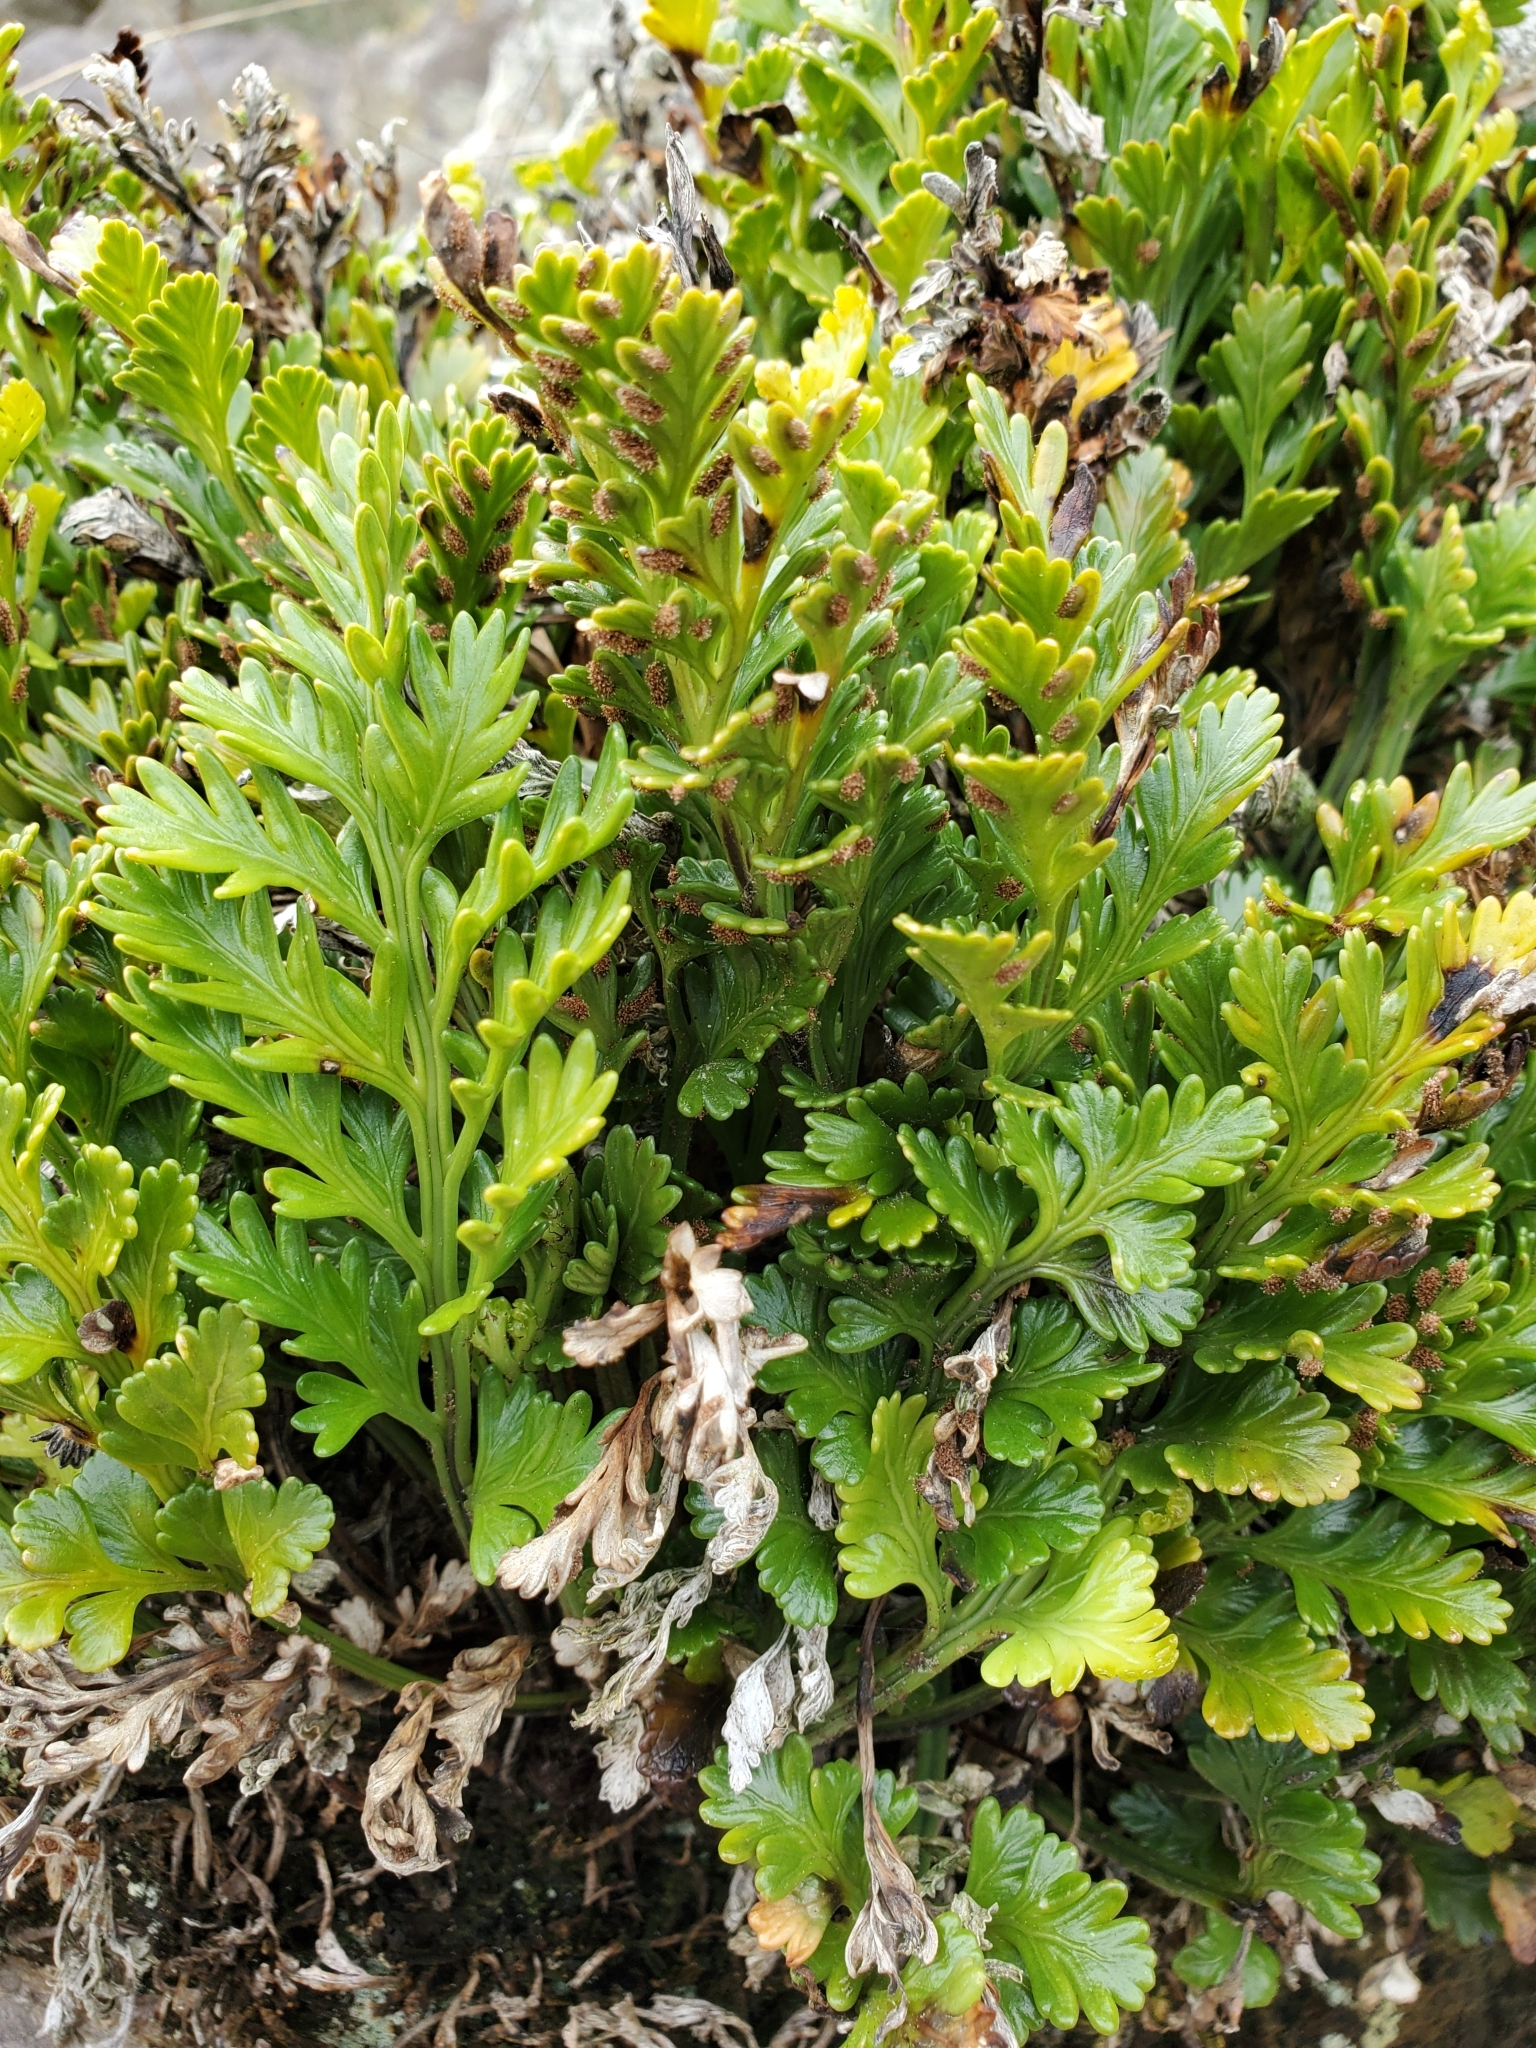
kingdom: Plantae
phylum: Tracheophyta
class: Polypodiopsida
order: Polypodiales
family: Aspleniaceae
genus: Asplenium
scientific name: Asplenium chathamense
